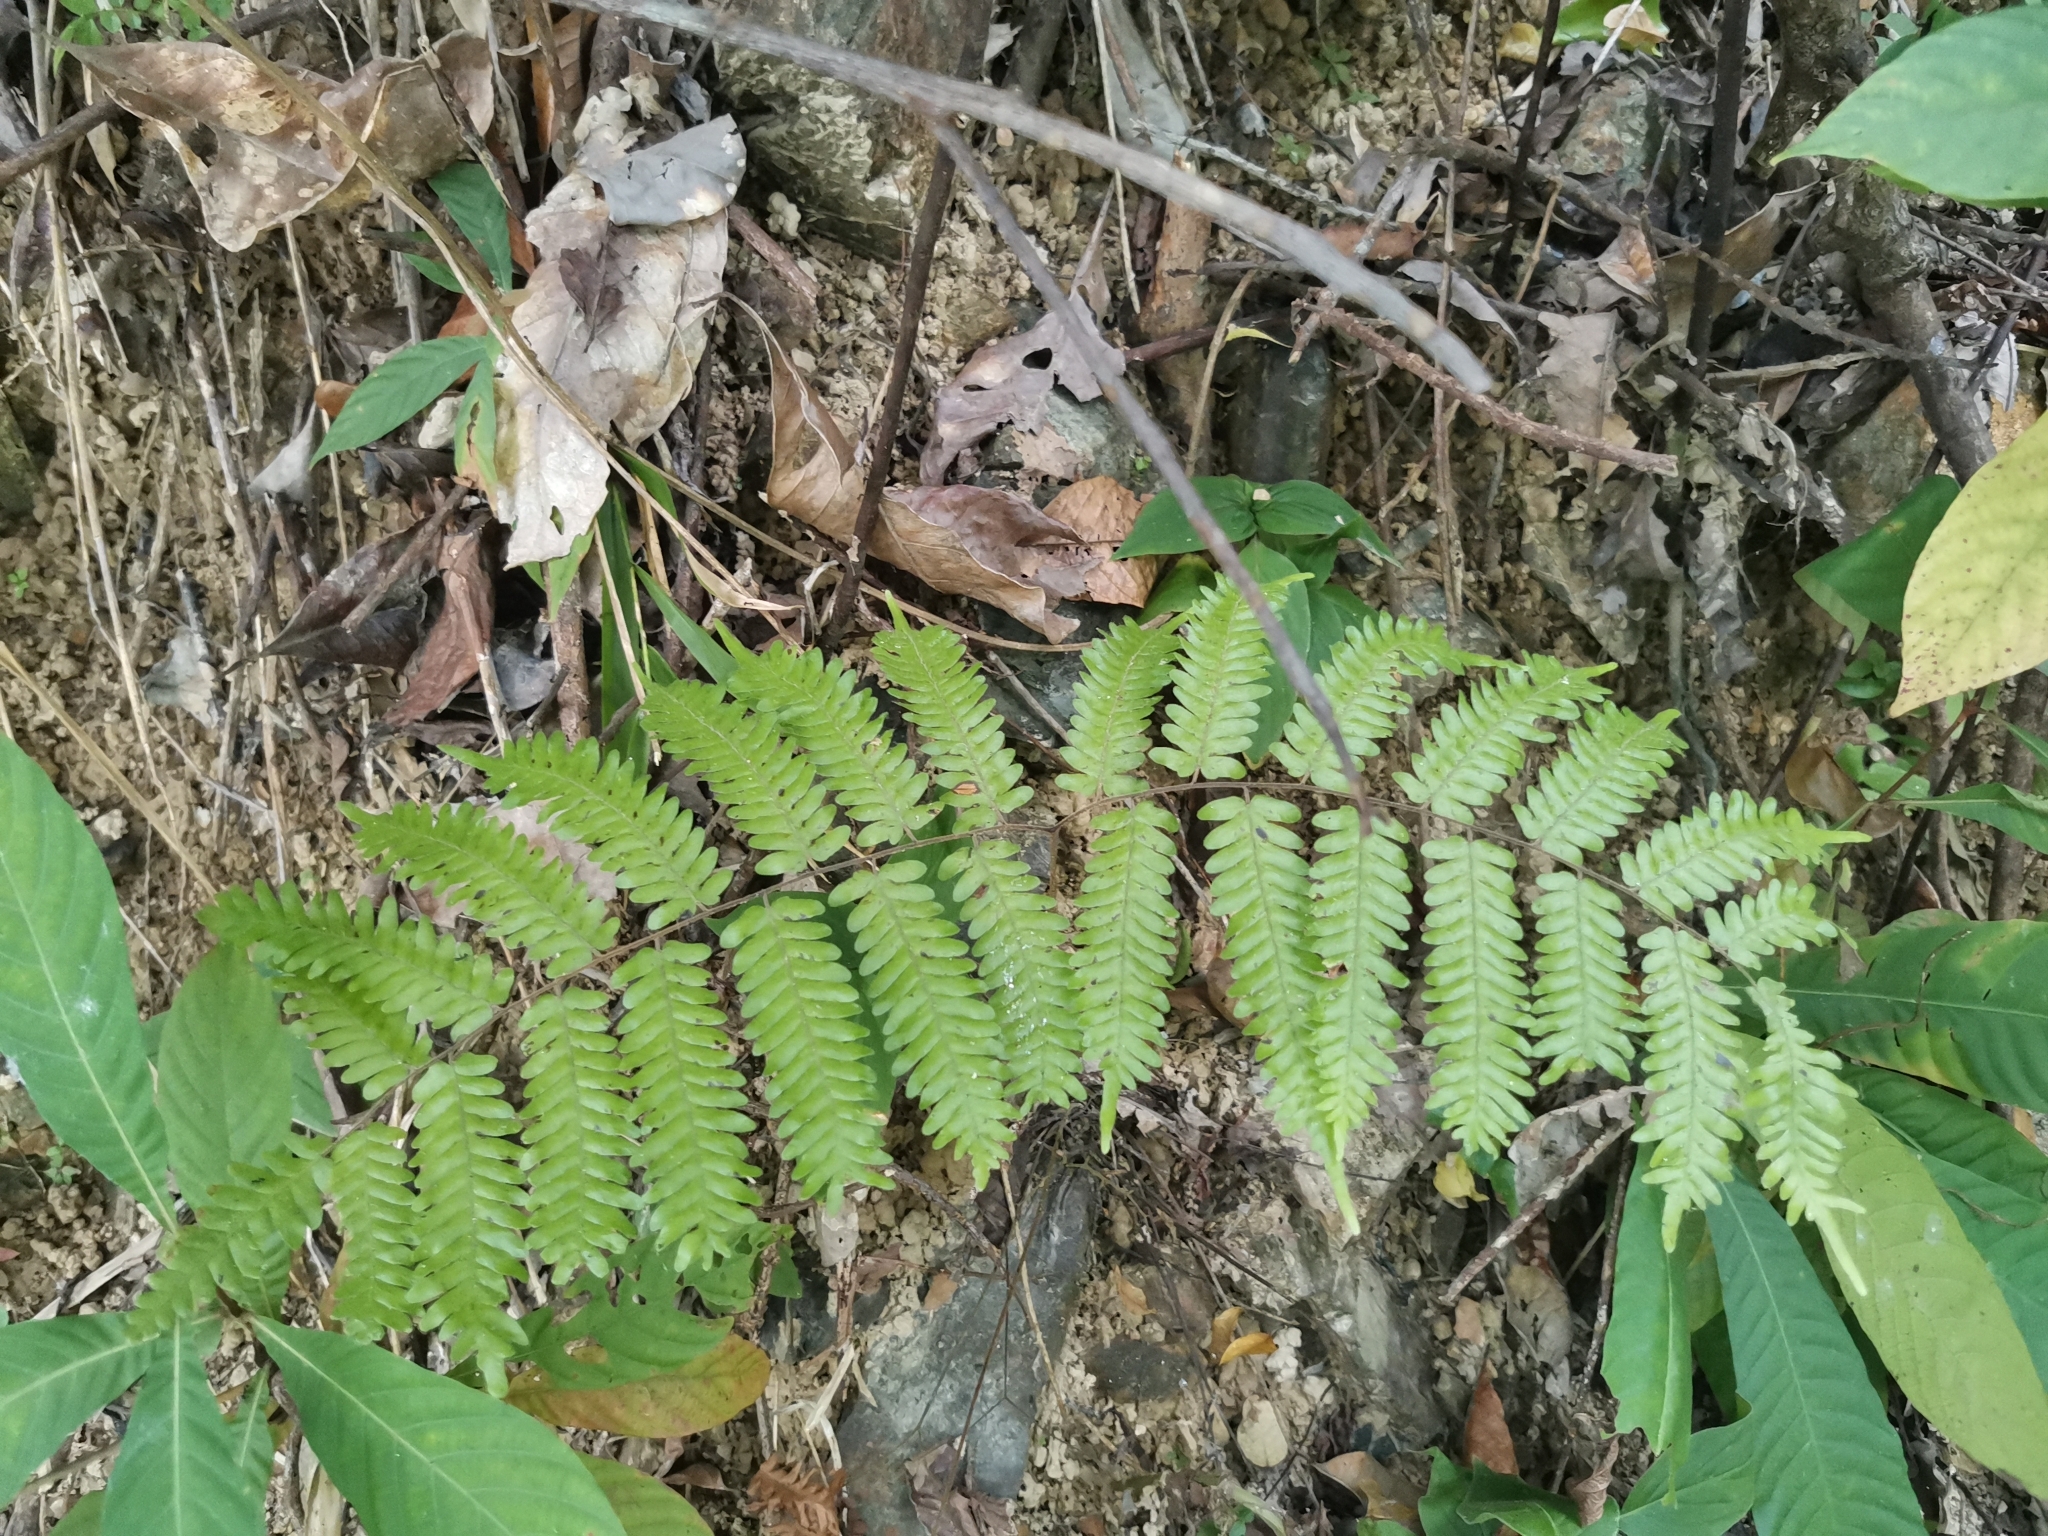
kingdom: Plantae
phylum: Tracheophyta
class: Polypodiopsida
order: Schizaeales
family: Lygodiaceae
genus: Lygodium
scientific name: Lygodium polystachyum
